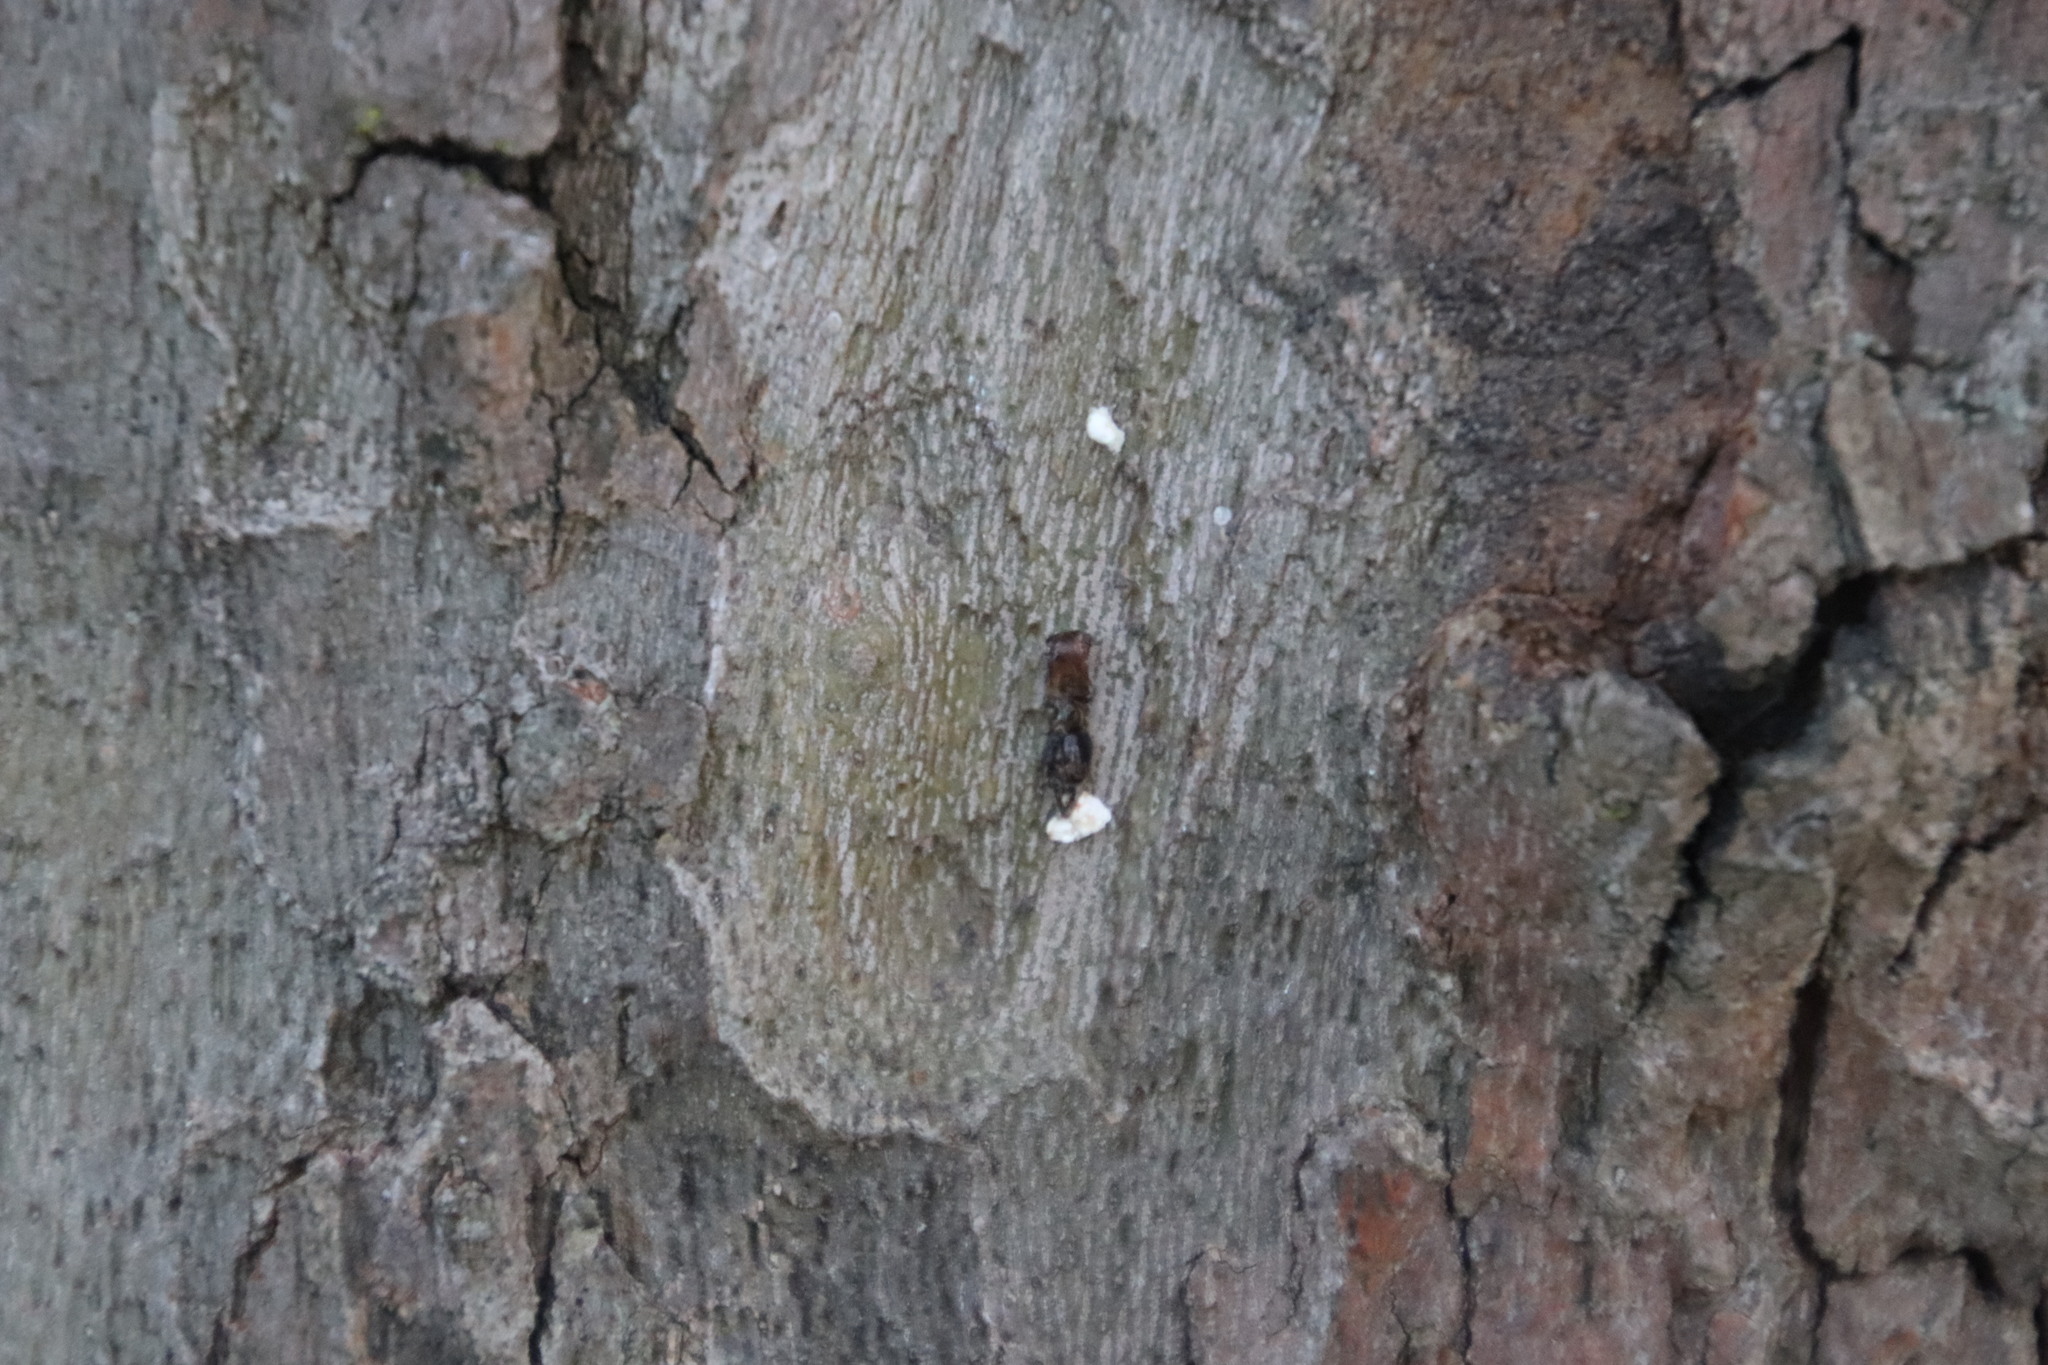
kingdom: Animalia
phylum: Chordata
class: Squamata
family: Gekkonidae
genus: Afrogecko
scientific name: Afrogecko porphyreus
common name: Marbled leaf-toed gecko
